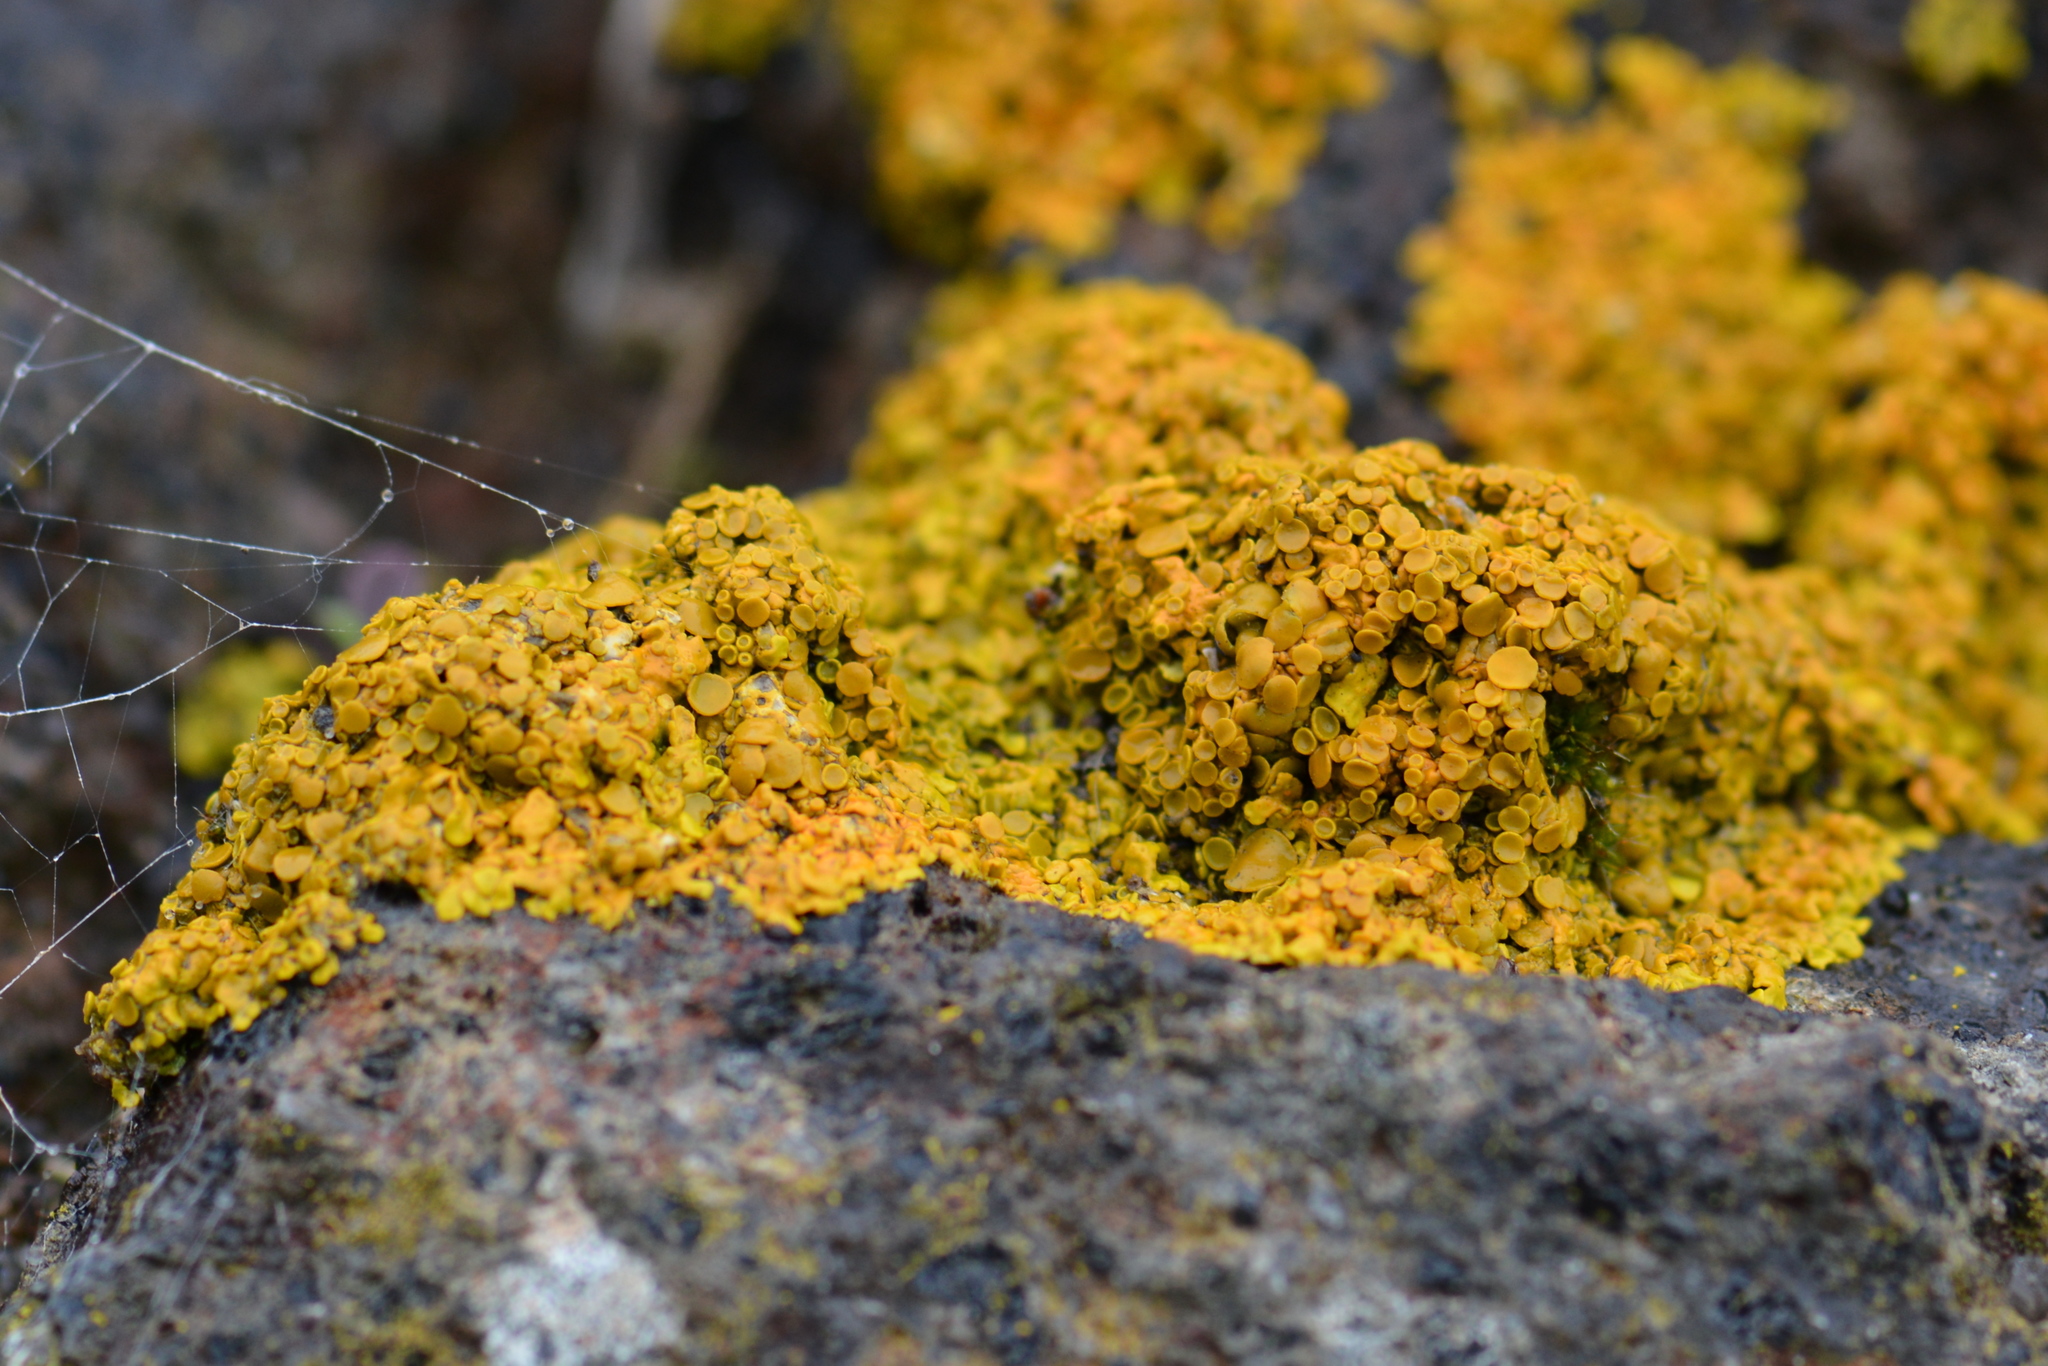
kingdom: Fungi
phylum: Ascomycota
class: Lecanoromycetes
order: Teloschistales
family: Teloschistaceae
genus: Xanthoria
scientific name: Xanthoria parietina
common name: Common orange lichen
